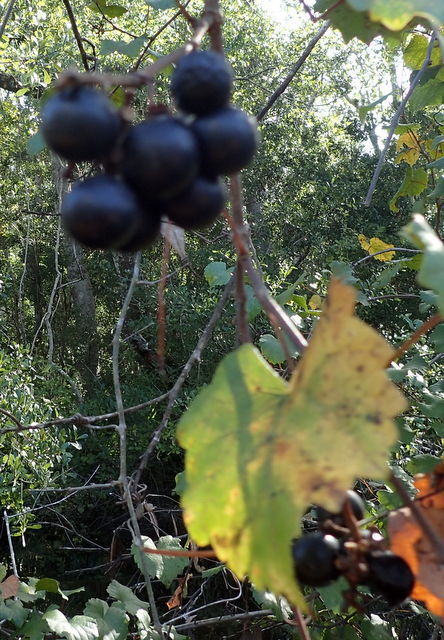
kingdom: Plantae
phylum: Tracheophyta
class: Magnoliopsida
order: Vitales
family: Vitaceae
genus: Vitis
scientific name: Vitis rotundifolia
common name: Muscadine grape
